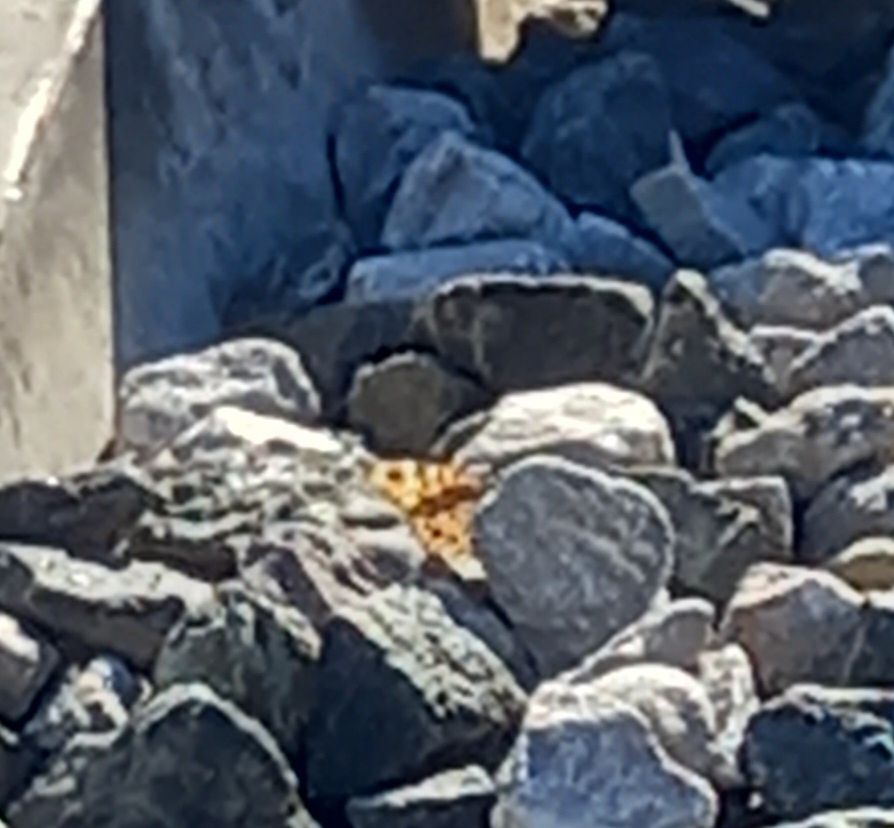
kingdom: Animalia
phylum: Arthropoda
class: Insecta
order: Lepidoptera
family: Nymphalidae
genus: Pararge
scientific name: Pararge Lasiommata megera
